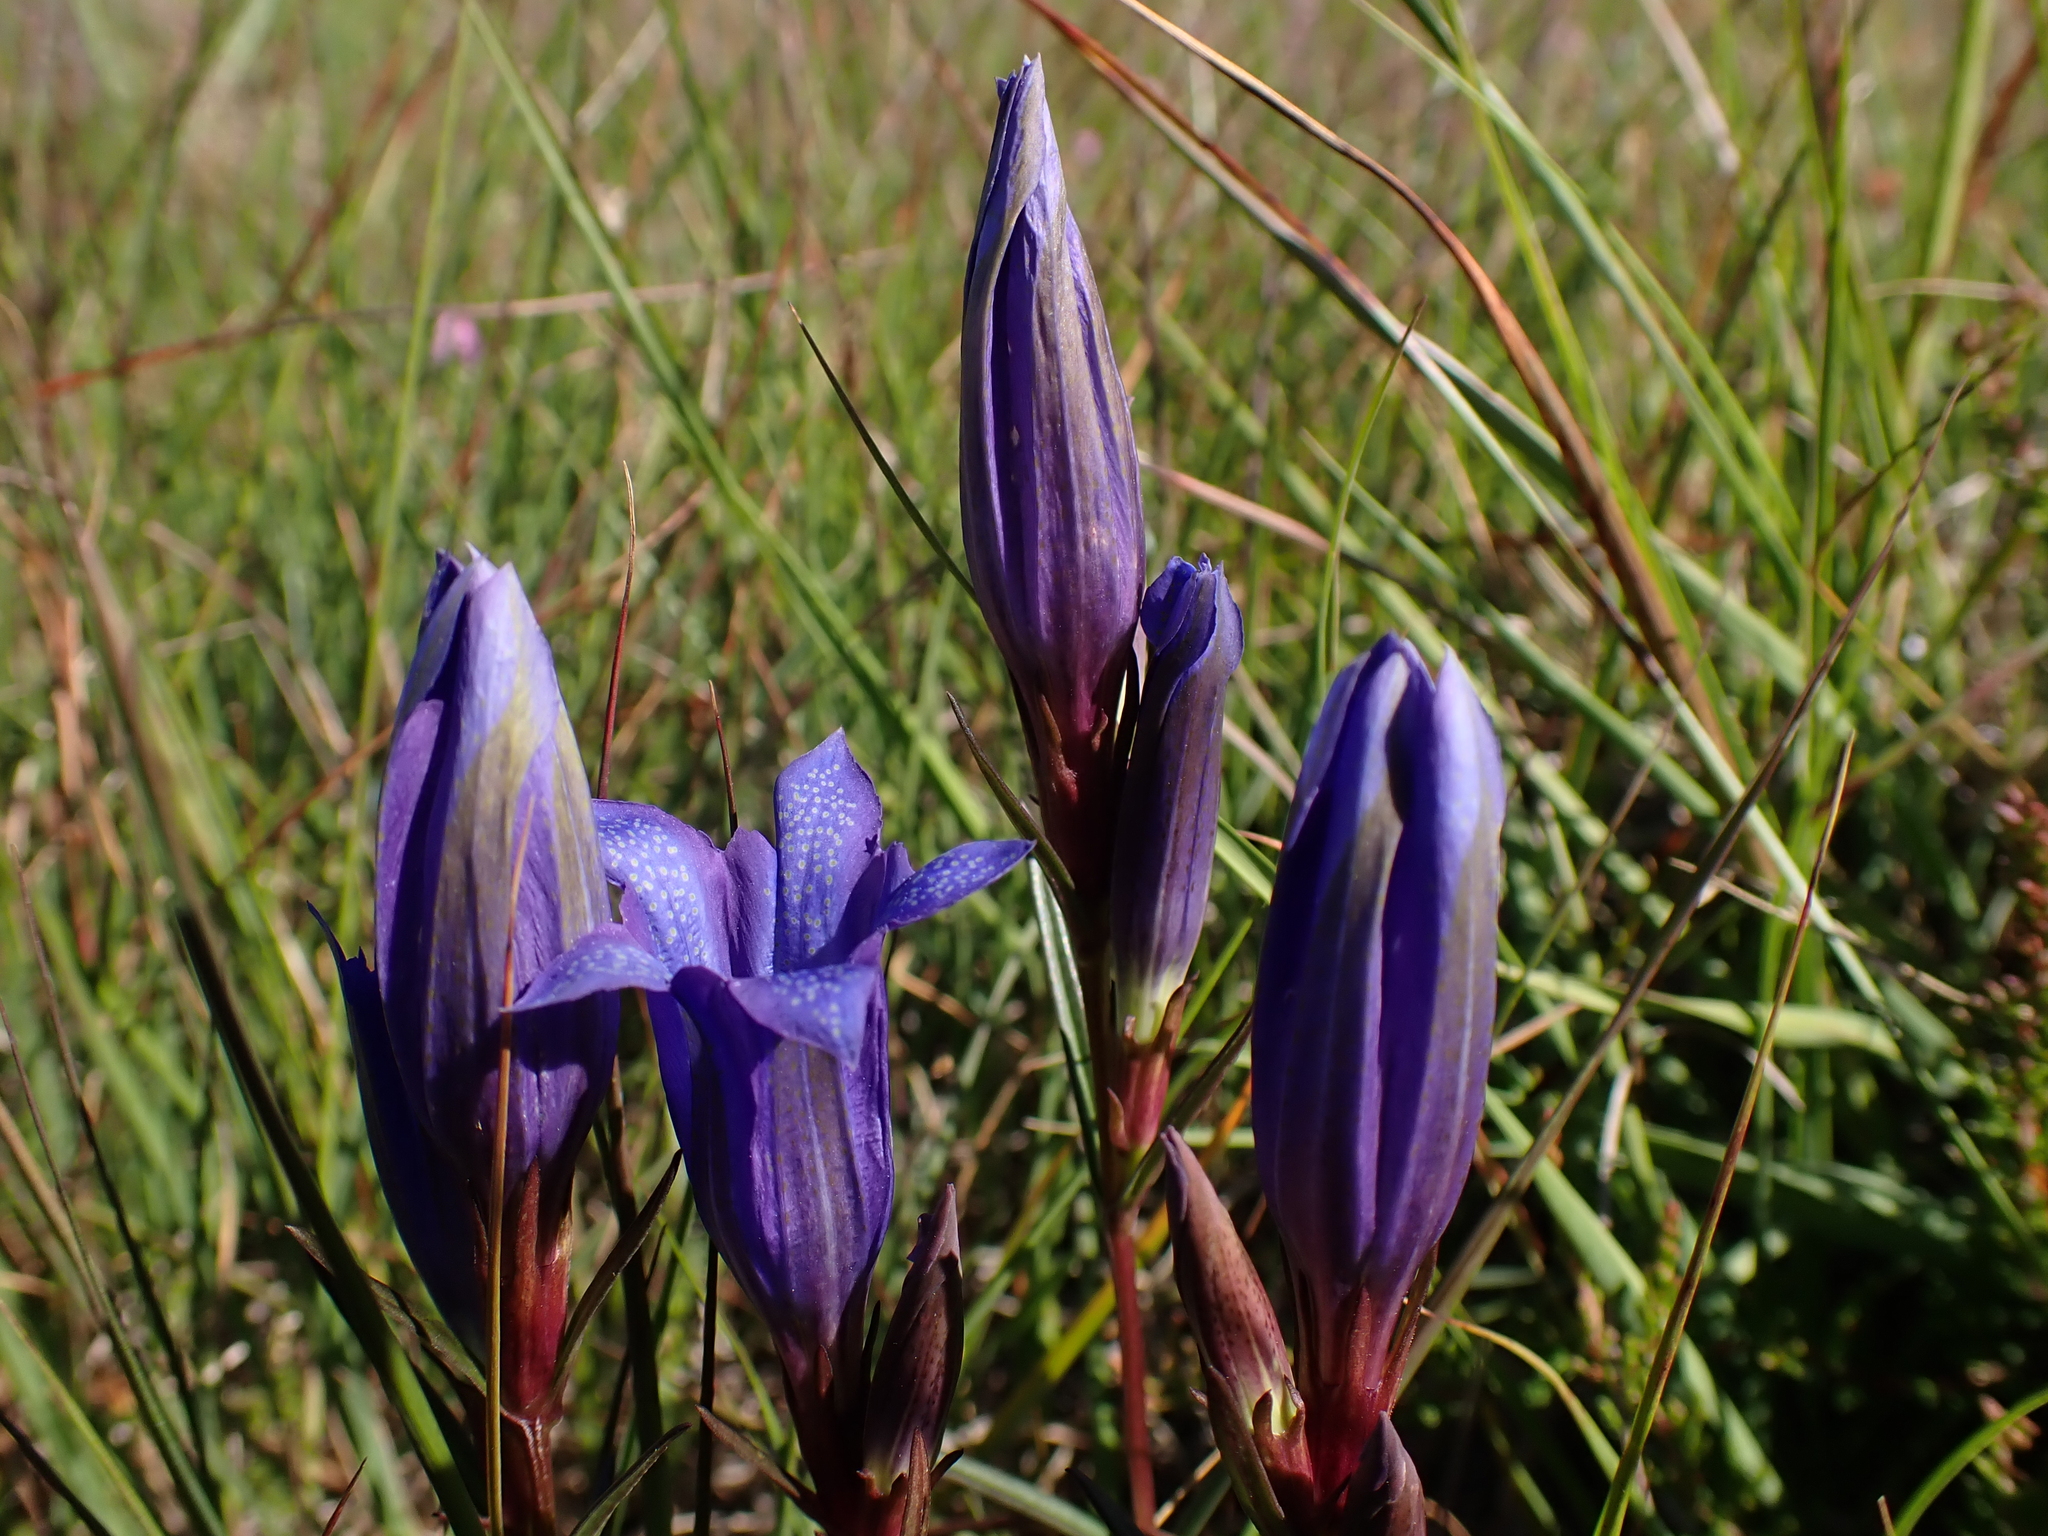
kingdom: Plantae
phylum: Tracheophyta
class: Magnoliopsida
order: Gentianales
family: Gentianaceae
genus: Gentiana
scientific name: Gentiana pneumonanthe
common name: Marsh gentian
